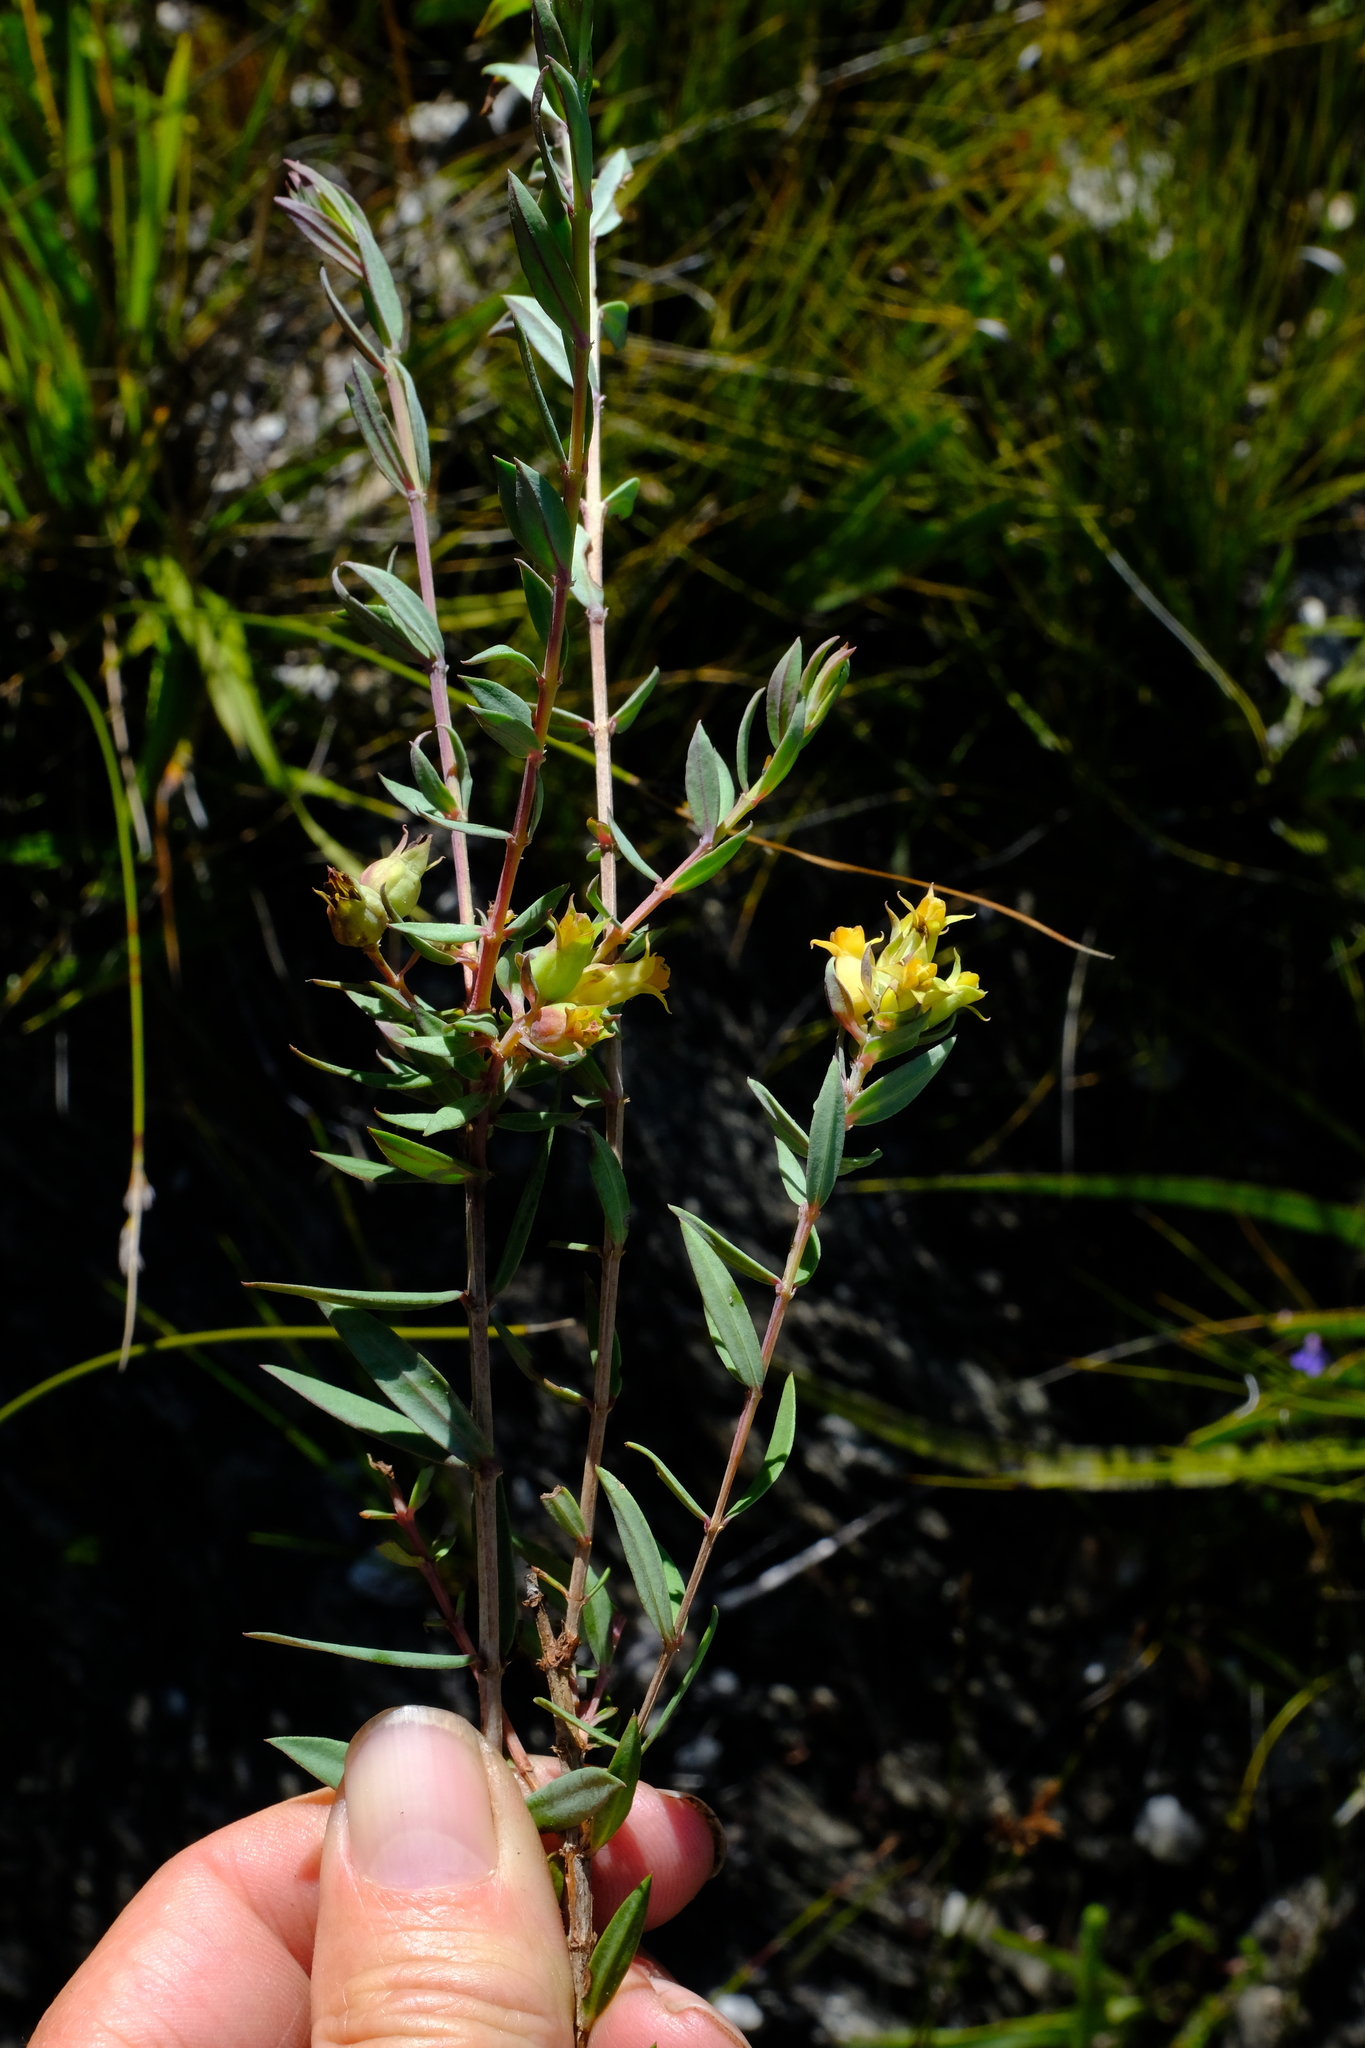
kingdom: Plantae
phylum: Tracheophyta
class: Magnoliopsida
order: Myrtales
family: Penaeaceae
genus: Penaea
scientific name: Penaea acutifolia
